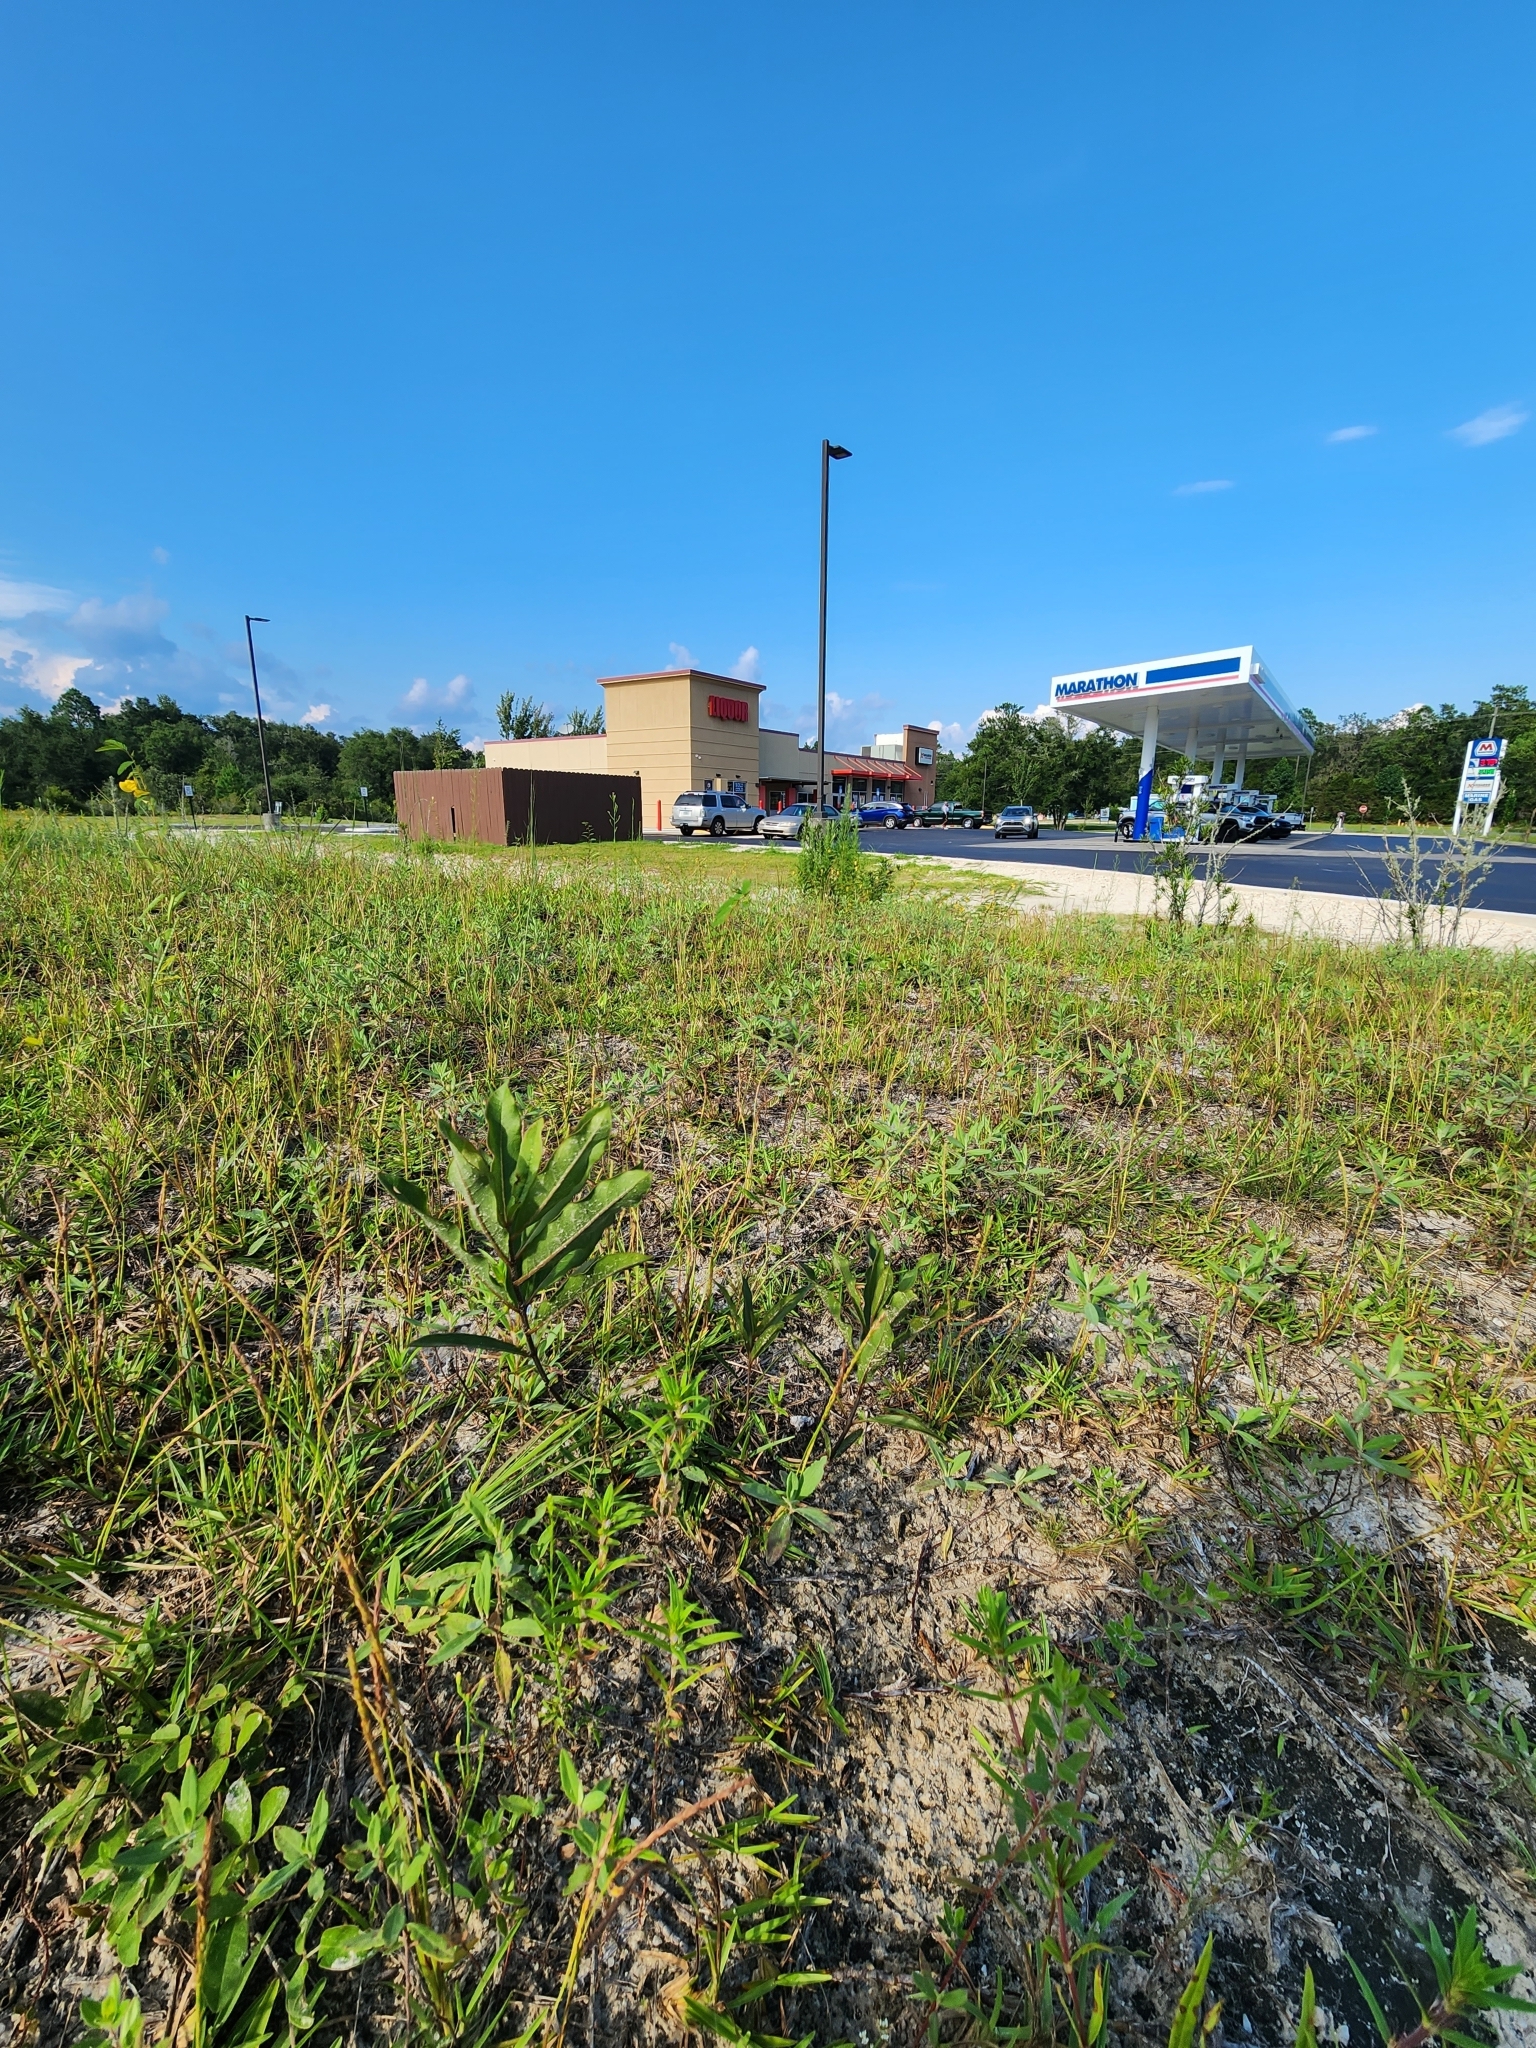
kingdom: Plantae
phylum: Tracheophyta
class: Magnoliopsida
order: Gentianales
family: Apocynaceae
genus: Asclepias
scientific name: Asclepias tomentosa
